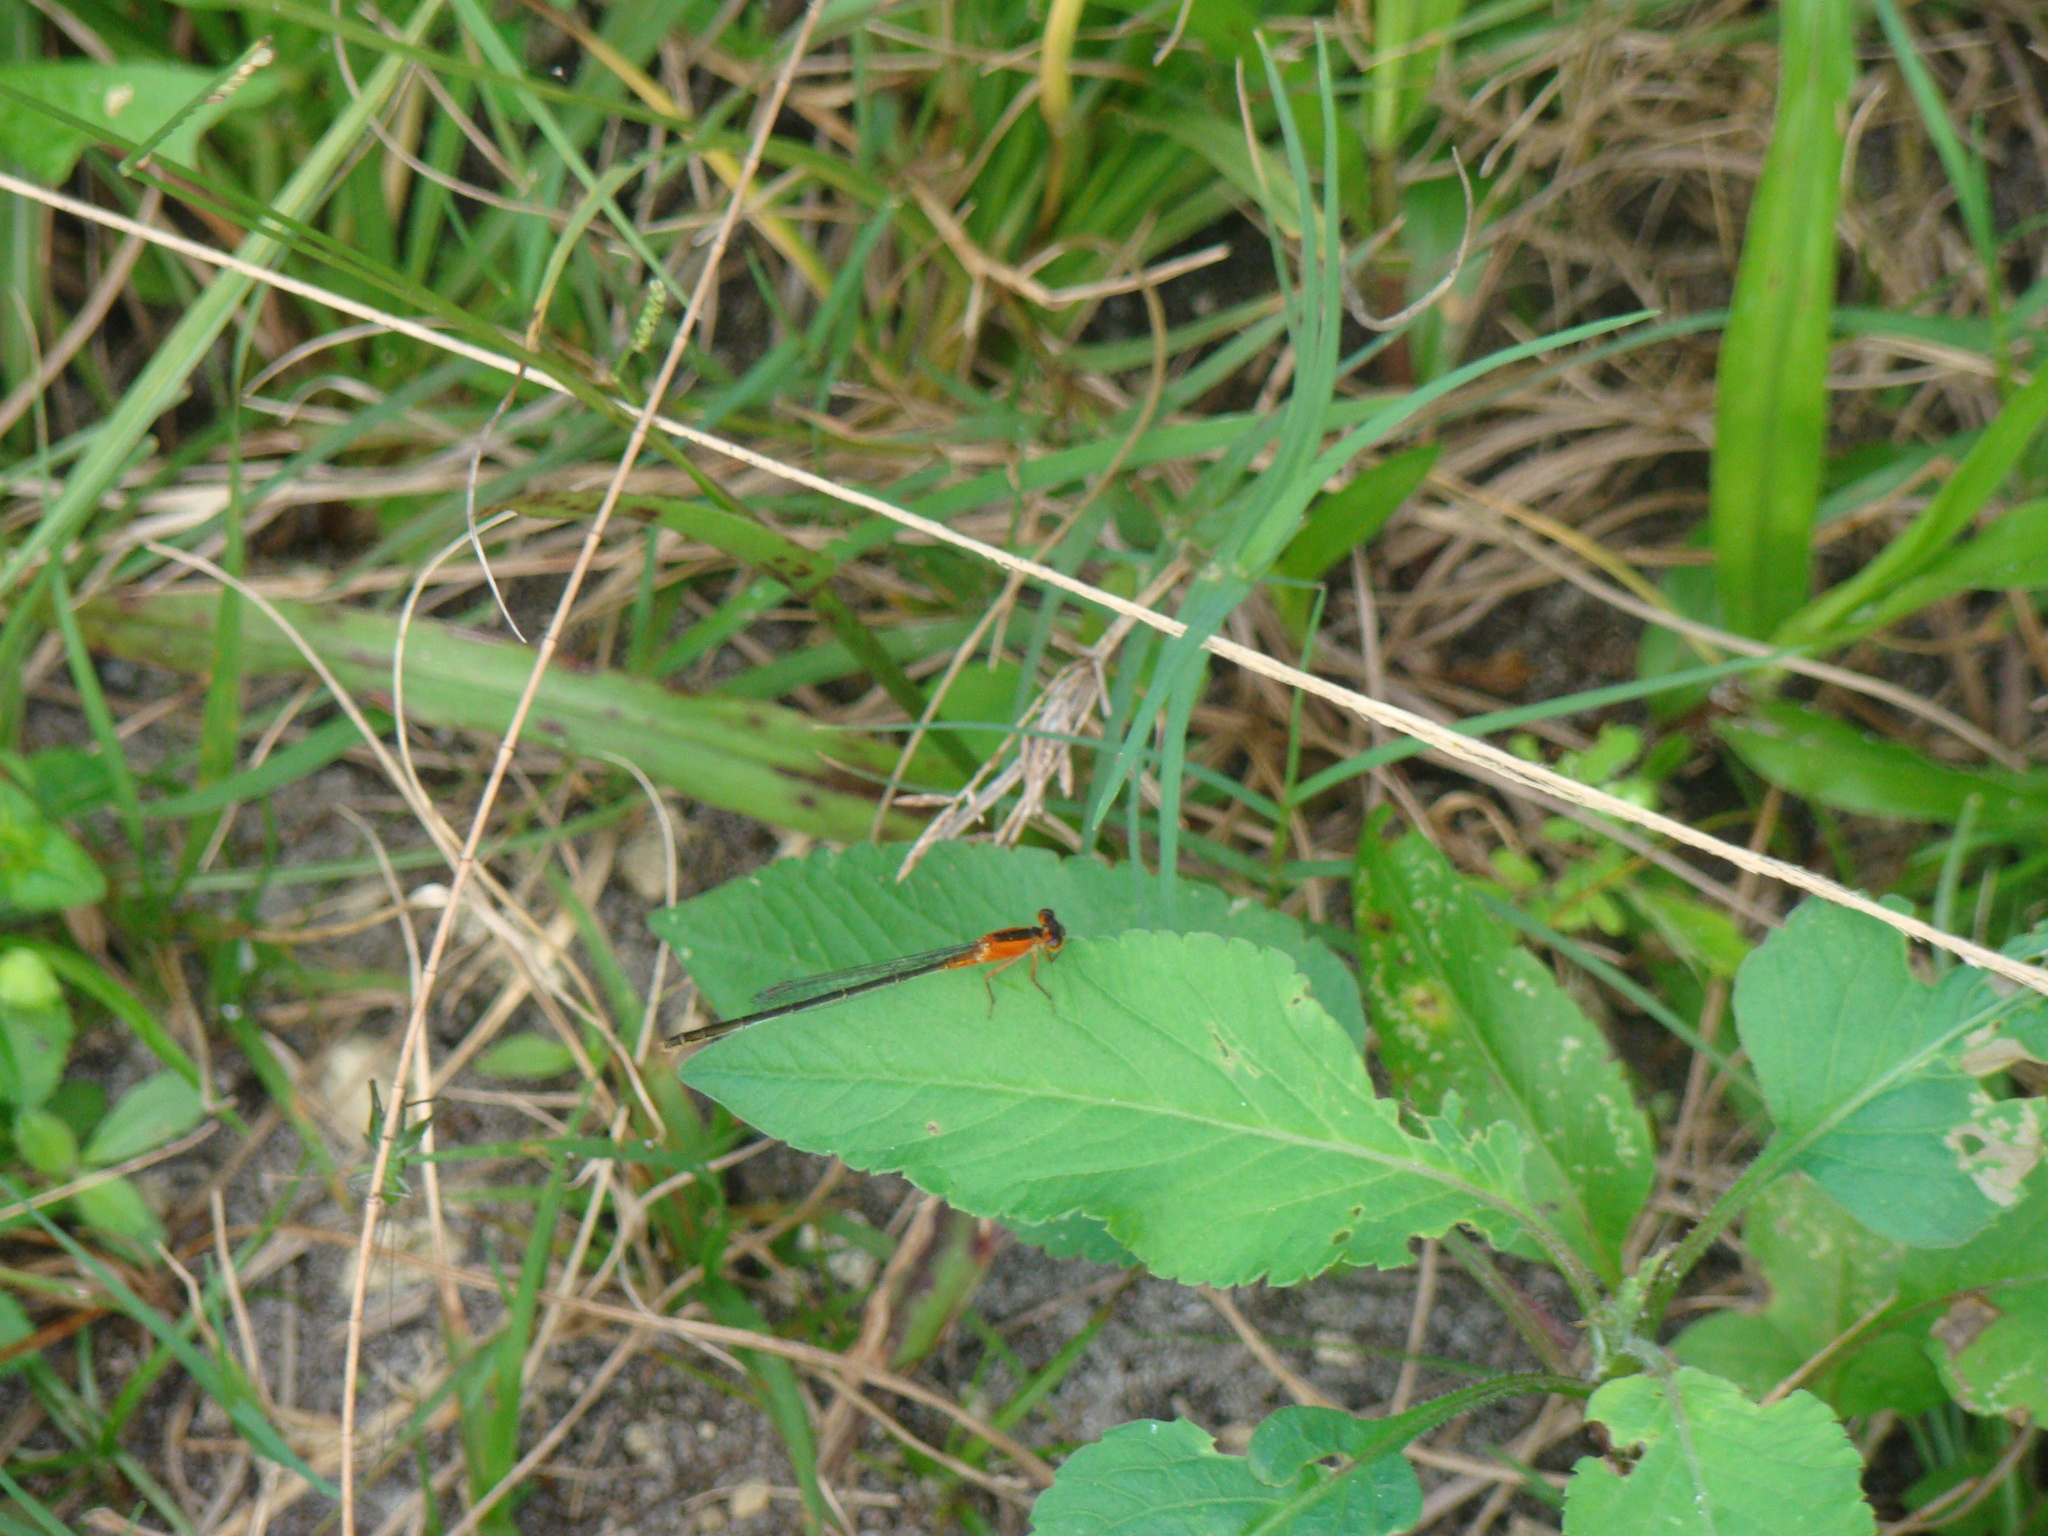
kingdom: Animalia
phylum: Arthropoda
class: Insecta
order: Odonata
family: Coenagrionidae
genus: Ischnura
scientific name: Ischnura ramburii
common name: Rambur's forktail
